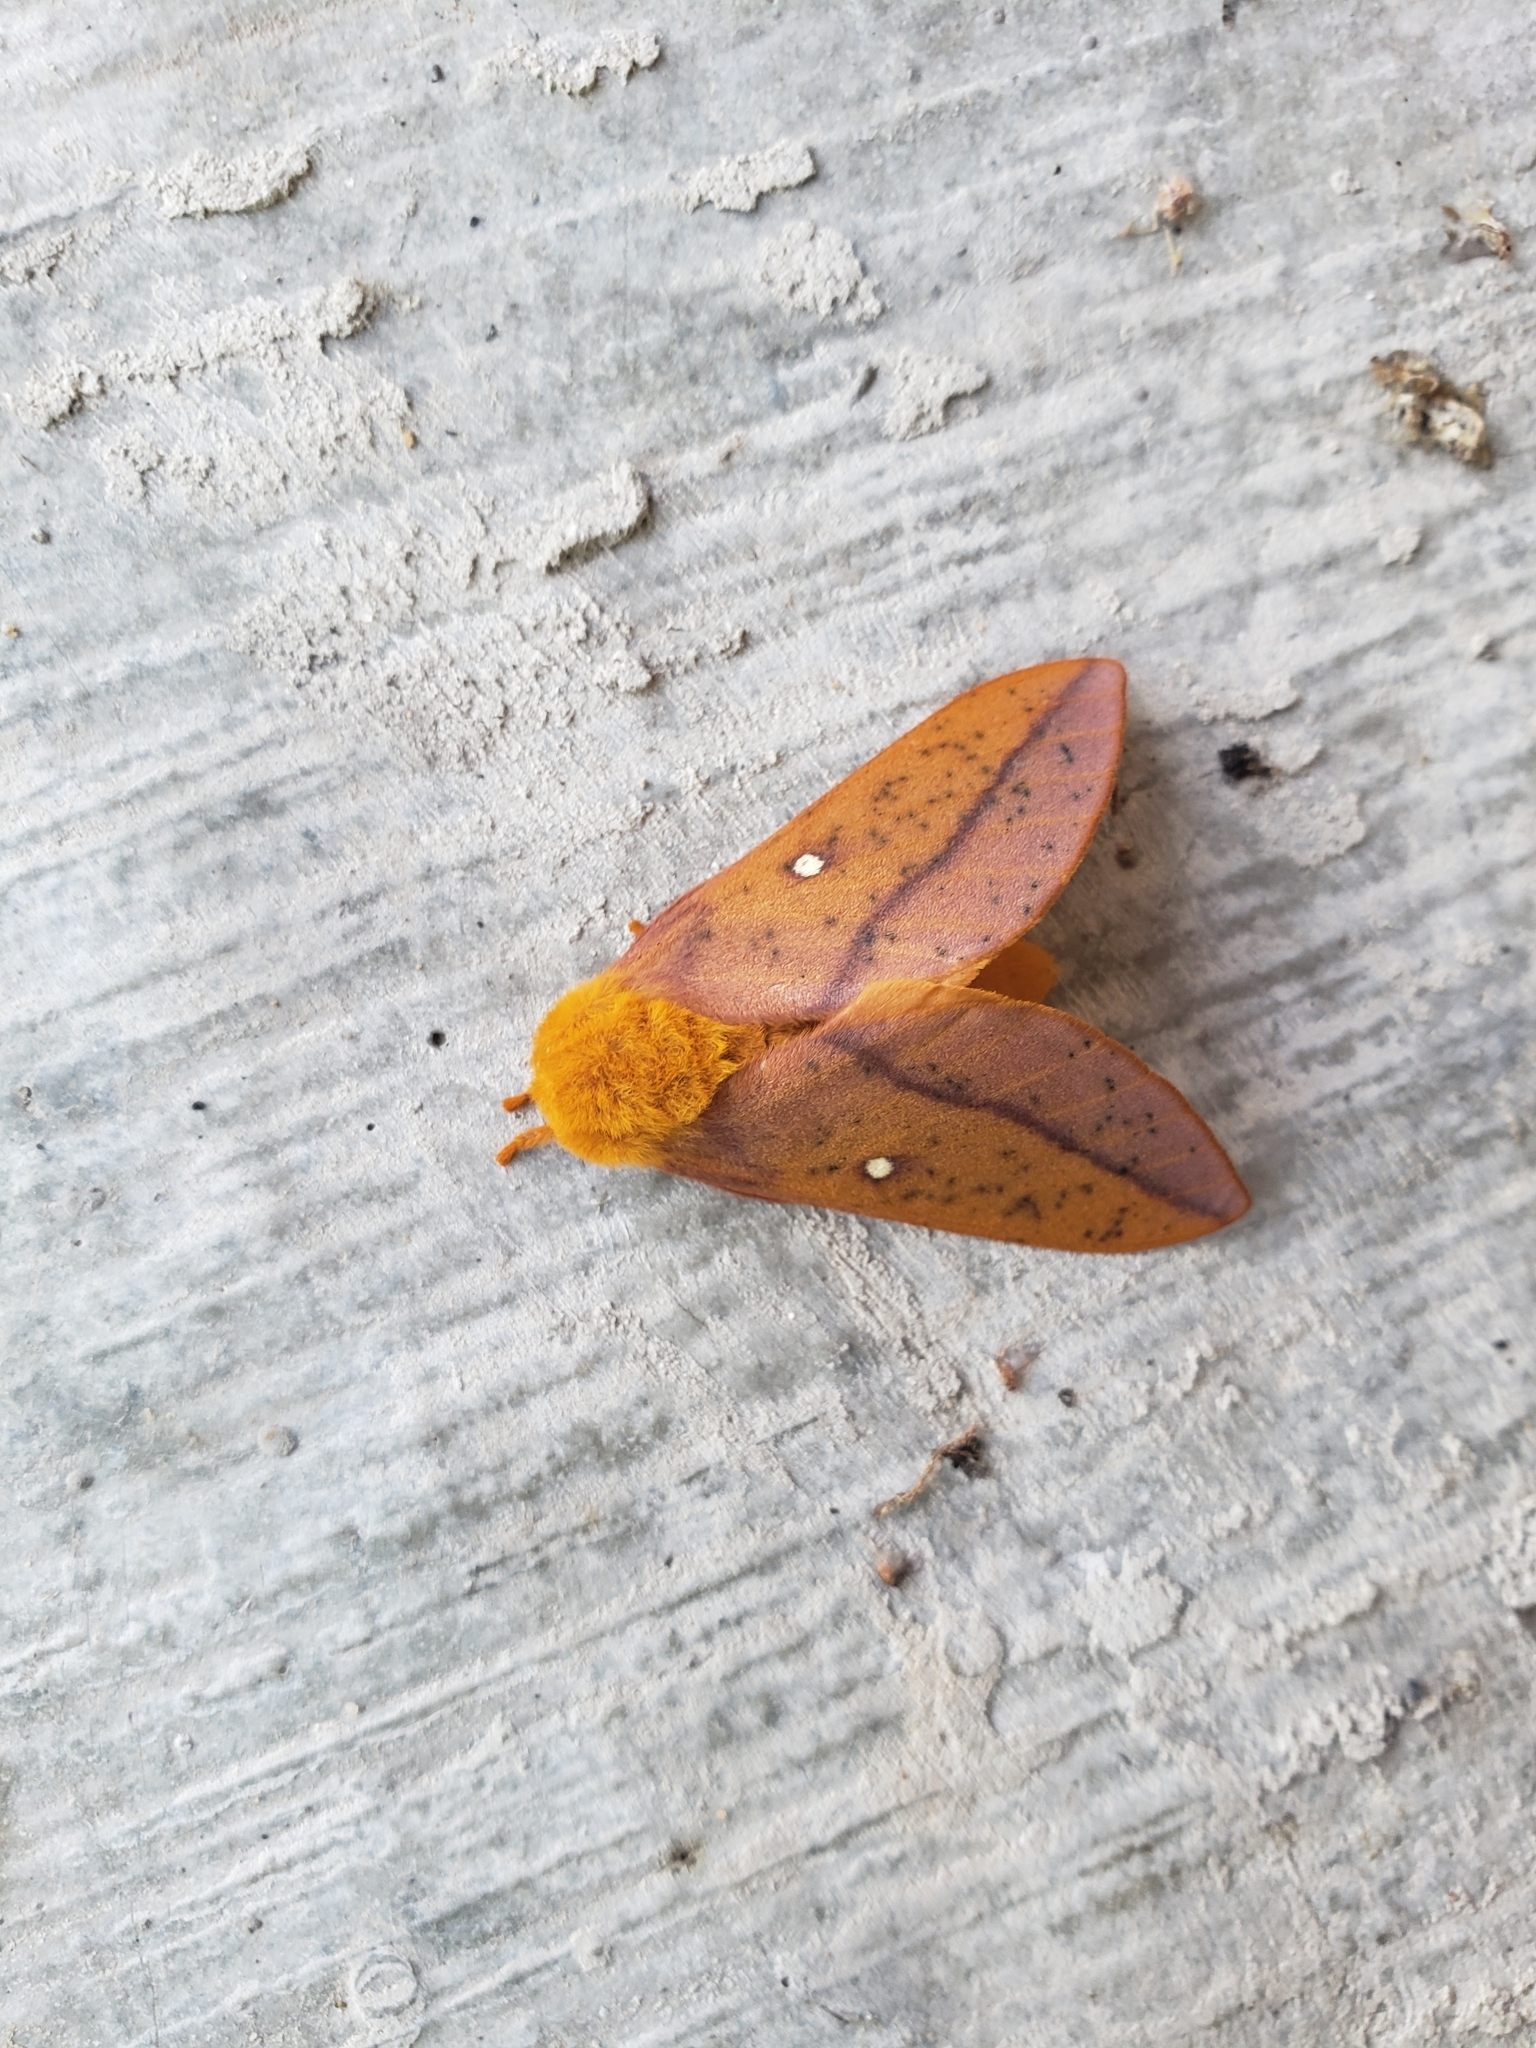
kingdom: Animalia
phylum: Arthropoda
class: Insecta
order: Lepidoptera
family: Saturniidae
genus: Anisota
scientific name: Anisota senatoria
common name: Orange-striped oakworm moth
